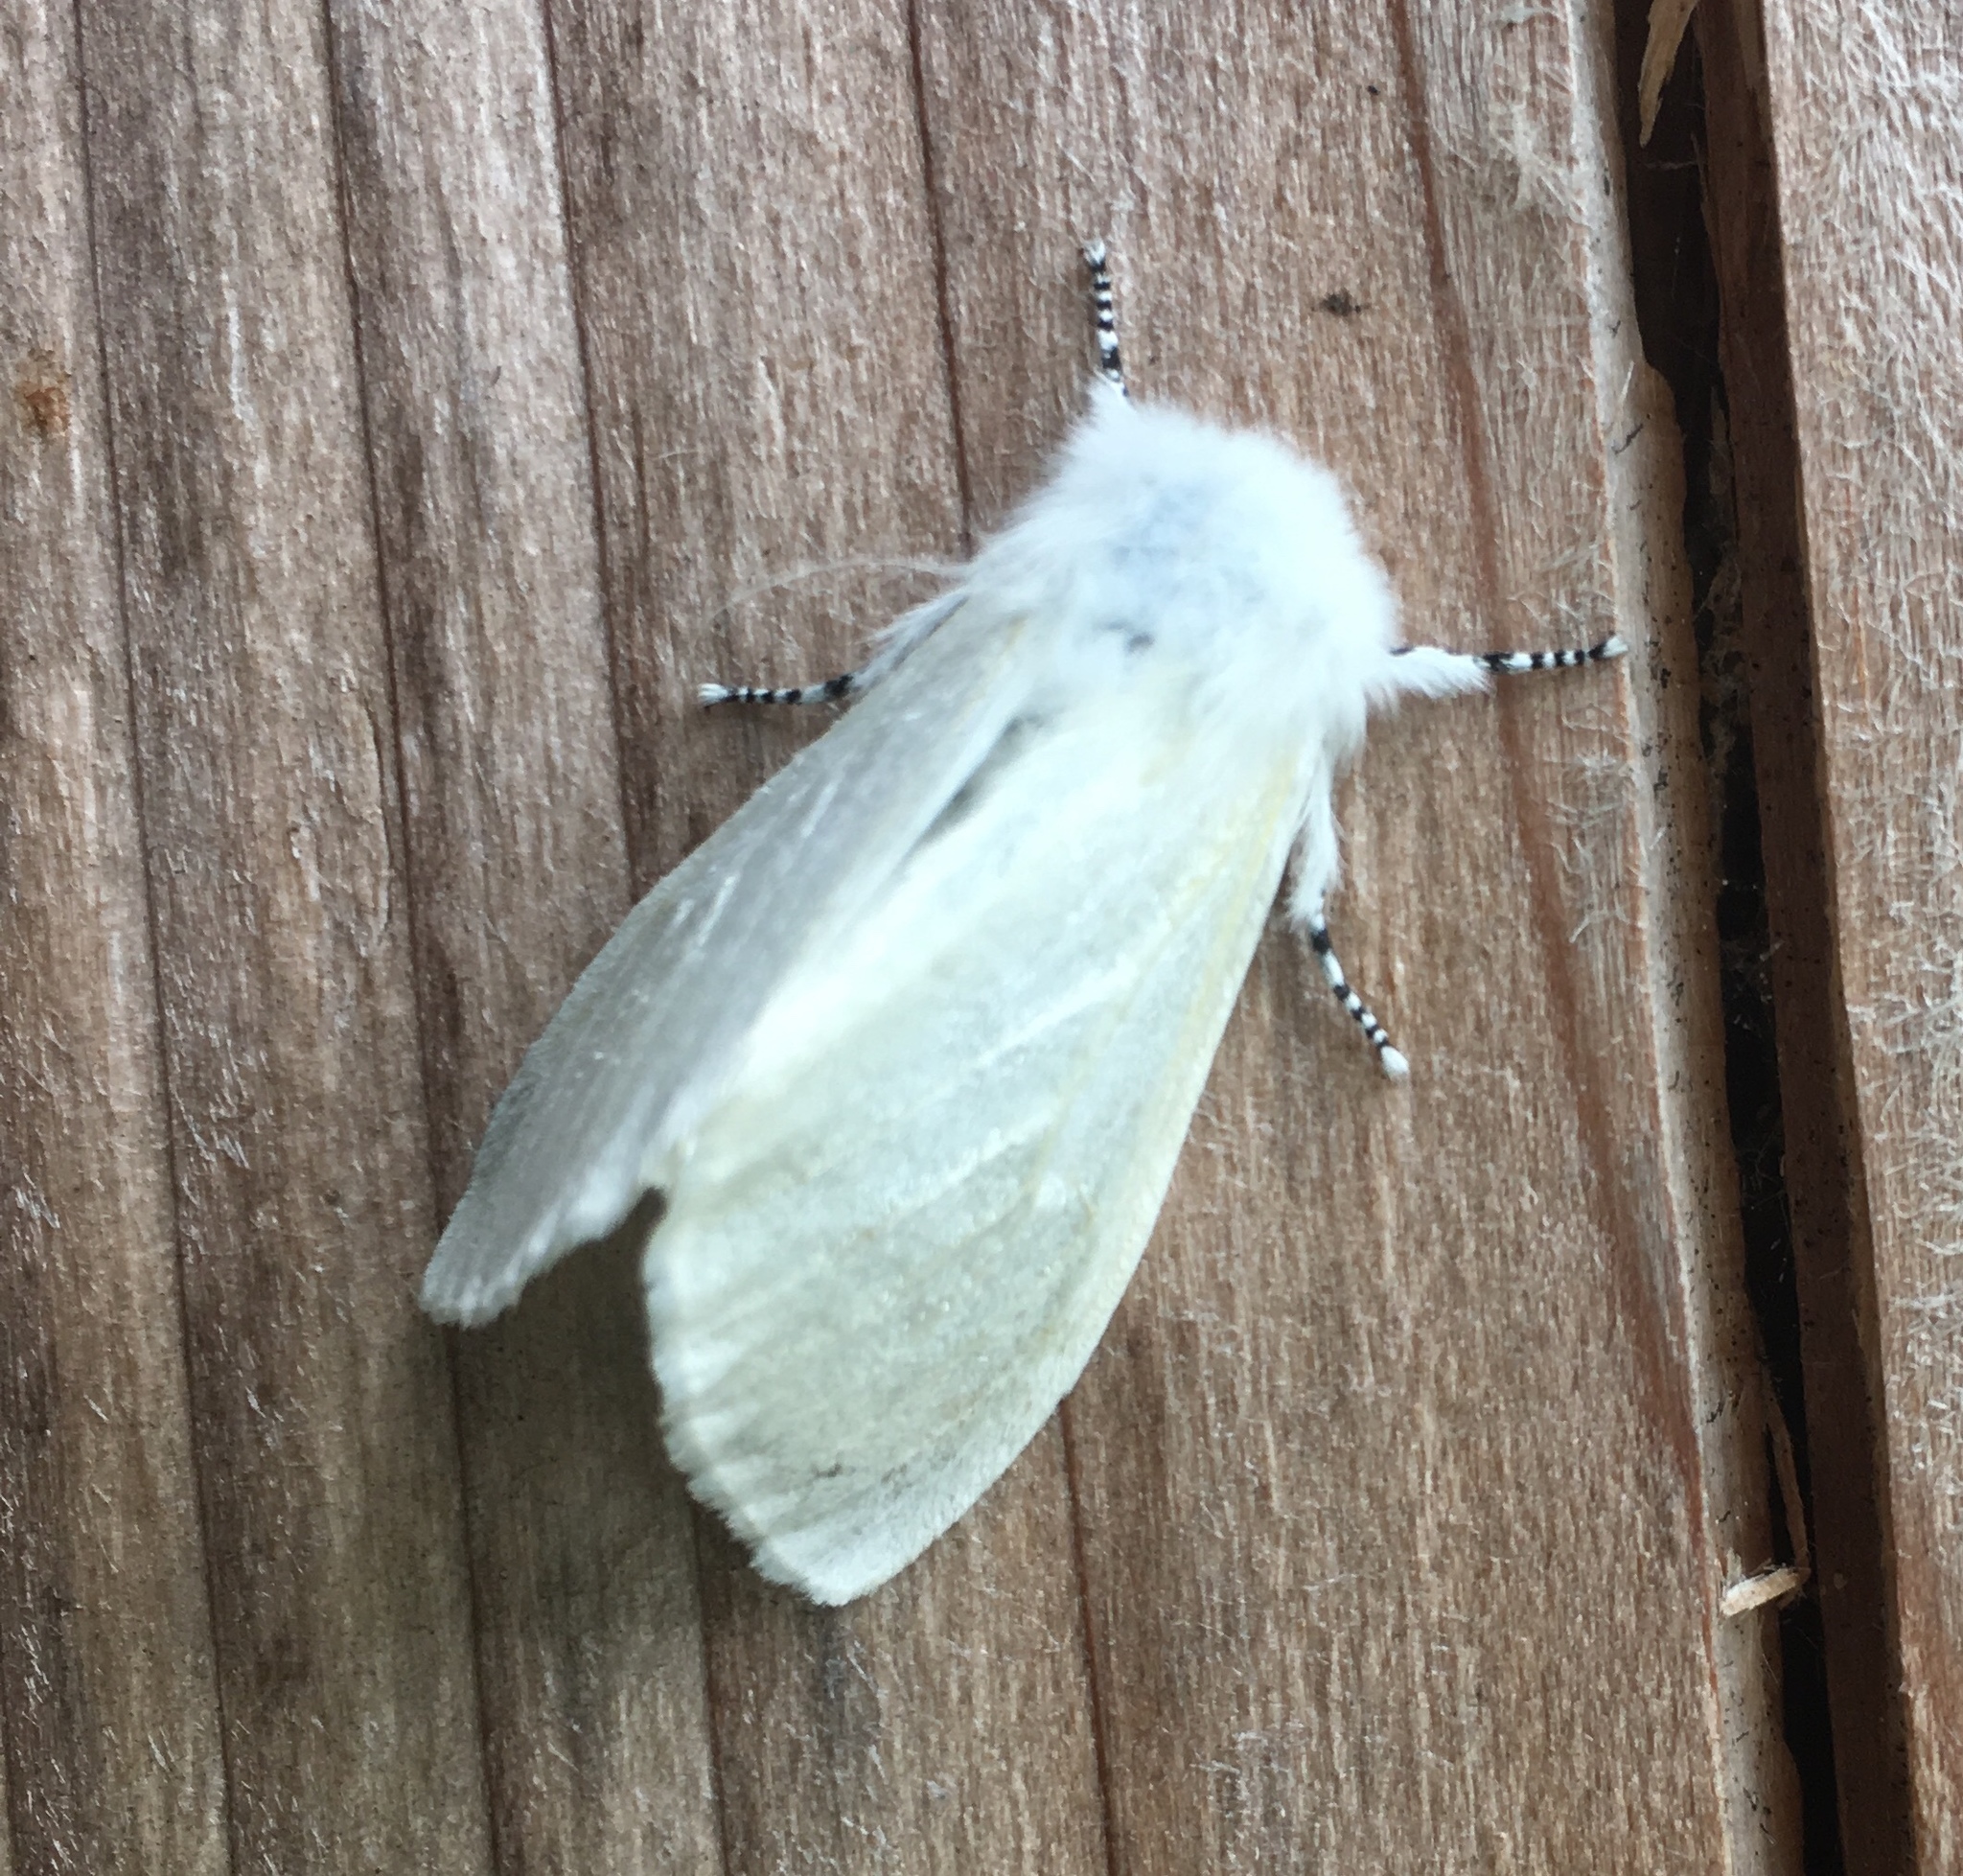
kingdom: Animalia
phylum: Arthropoda
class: Insecta
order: Lepidoptera
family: Erebidae
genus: Leucoma
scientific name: Leucoma salicis
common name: White satin moth
